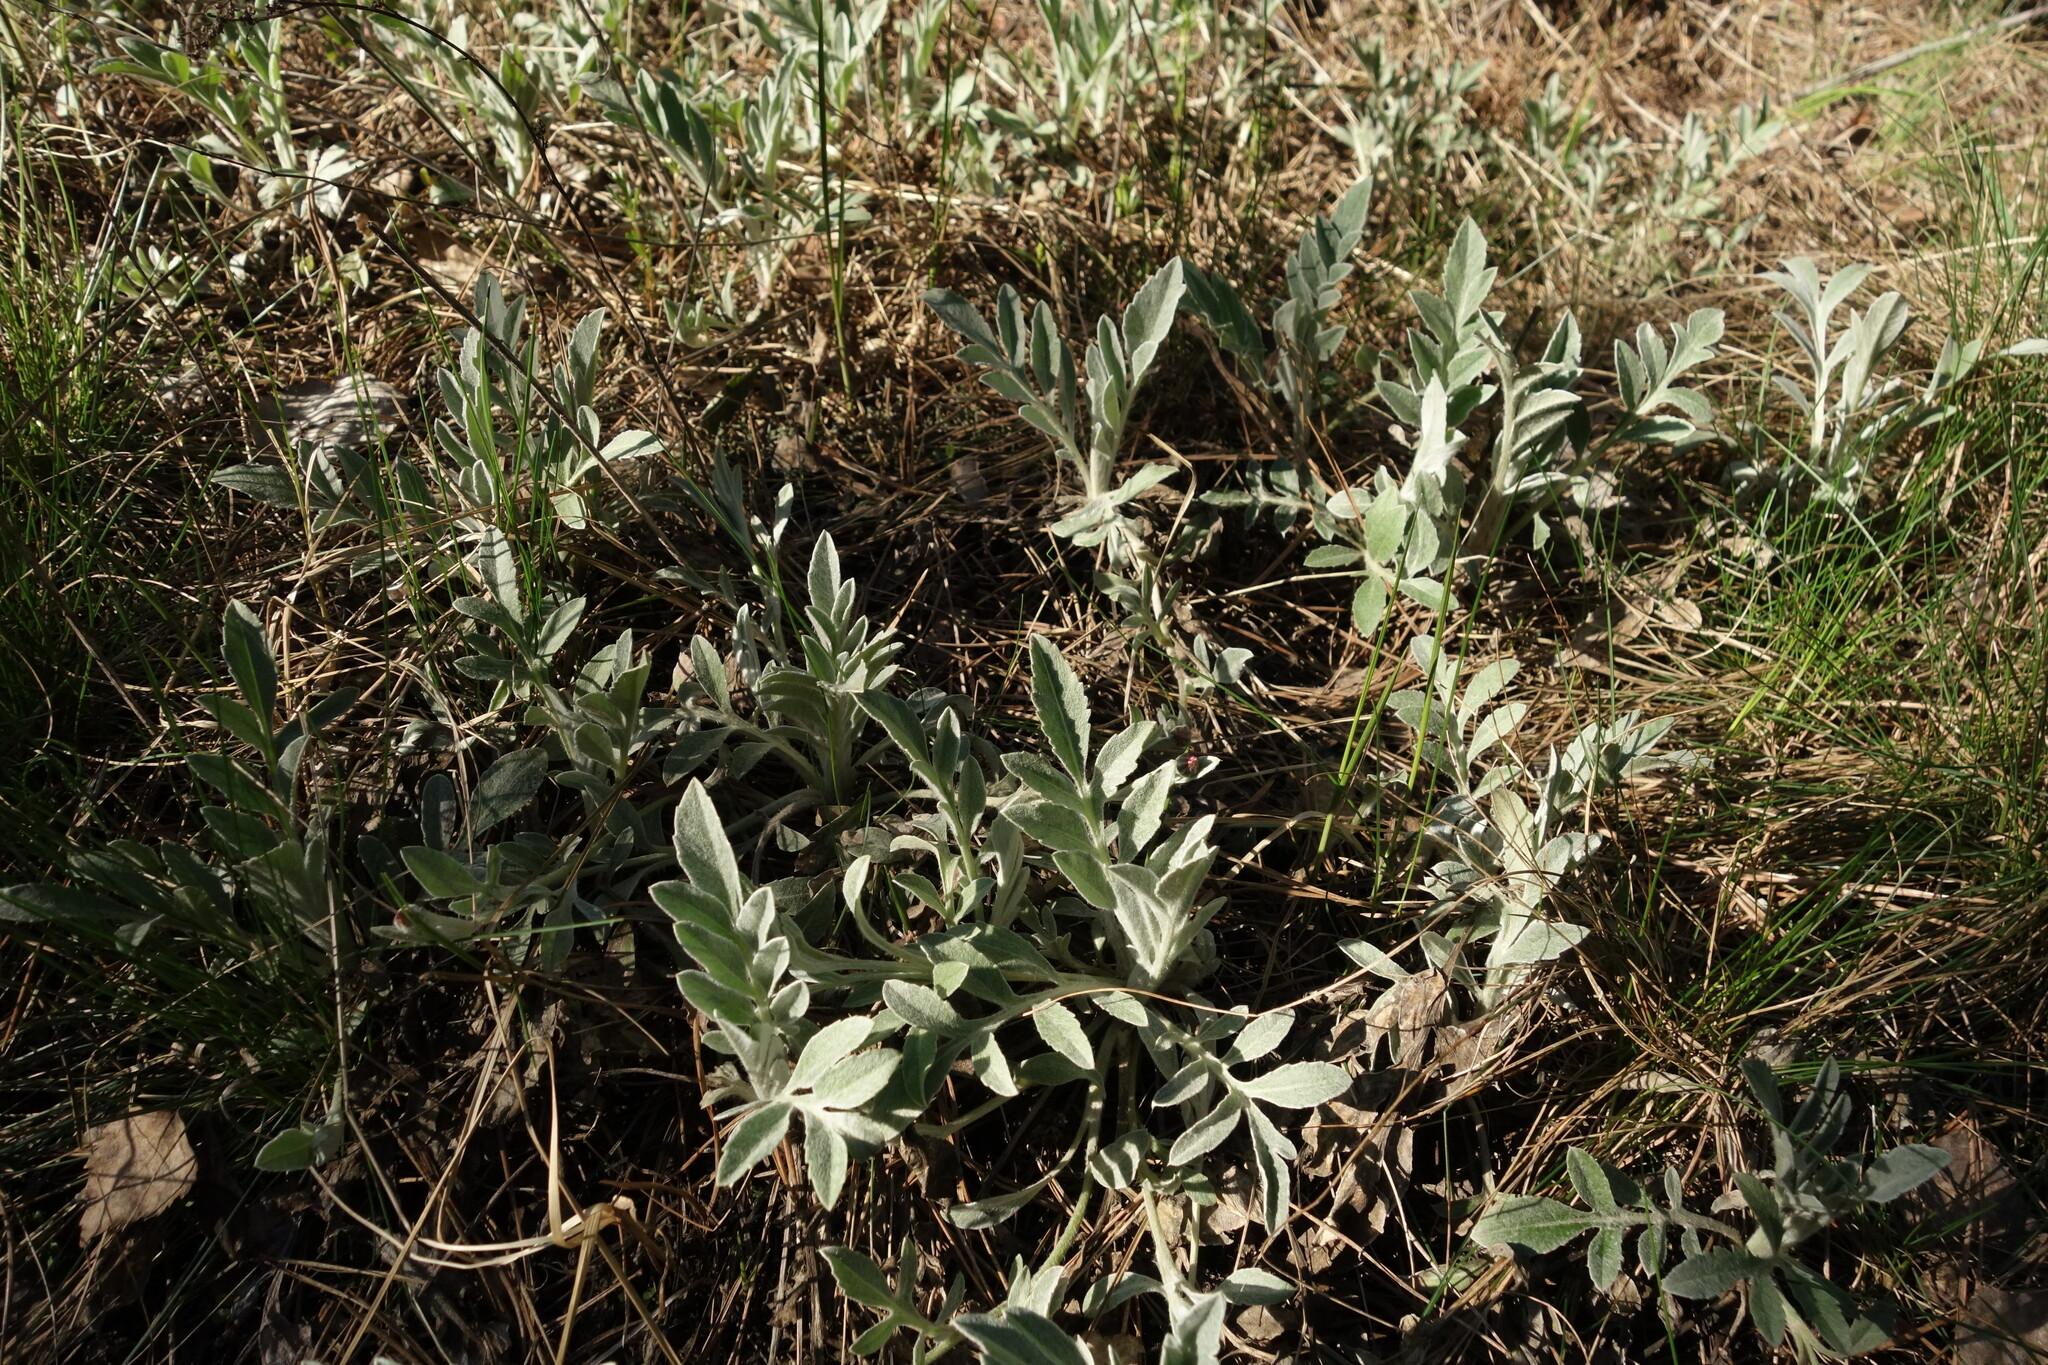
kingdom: Plantae
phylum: Tracheophyta
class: Magnoliopsida
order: Asterales
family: Asteraceae
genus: Psephellus
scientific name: Psephellus sumensis
